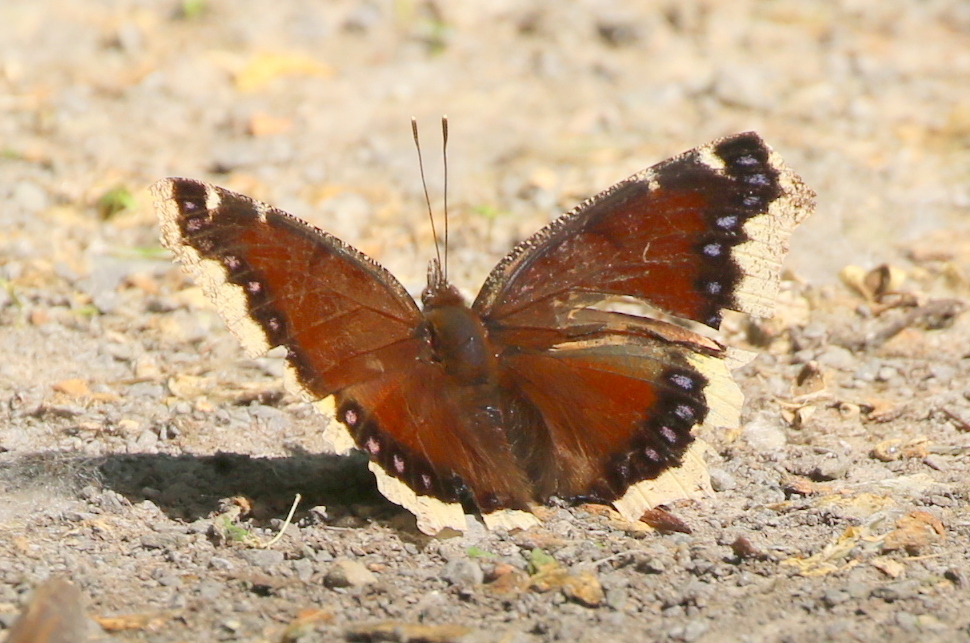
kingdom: Animalia
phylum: Arthropoda
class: Insecta
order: Lepidoptera
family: Nymphalidae
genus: Nymphalis
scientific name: Nymphalis antiopa
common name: Camberwell beauty
